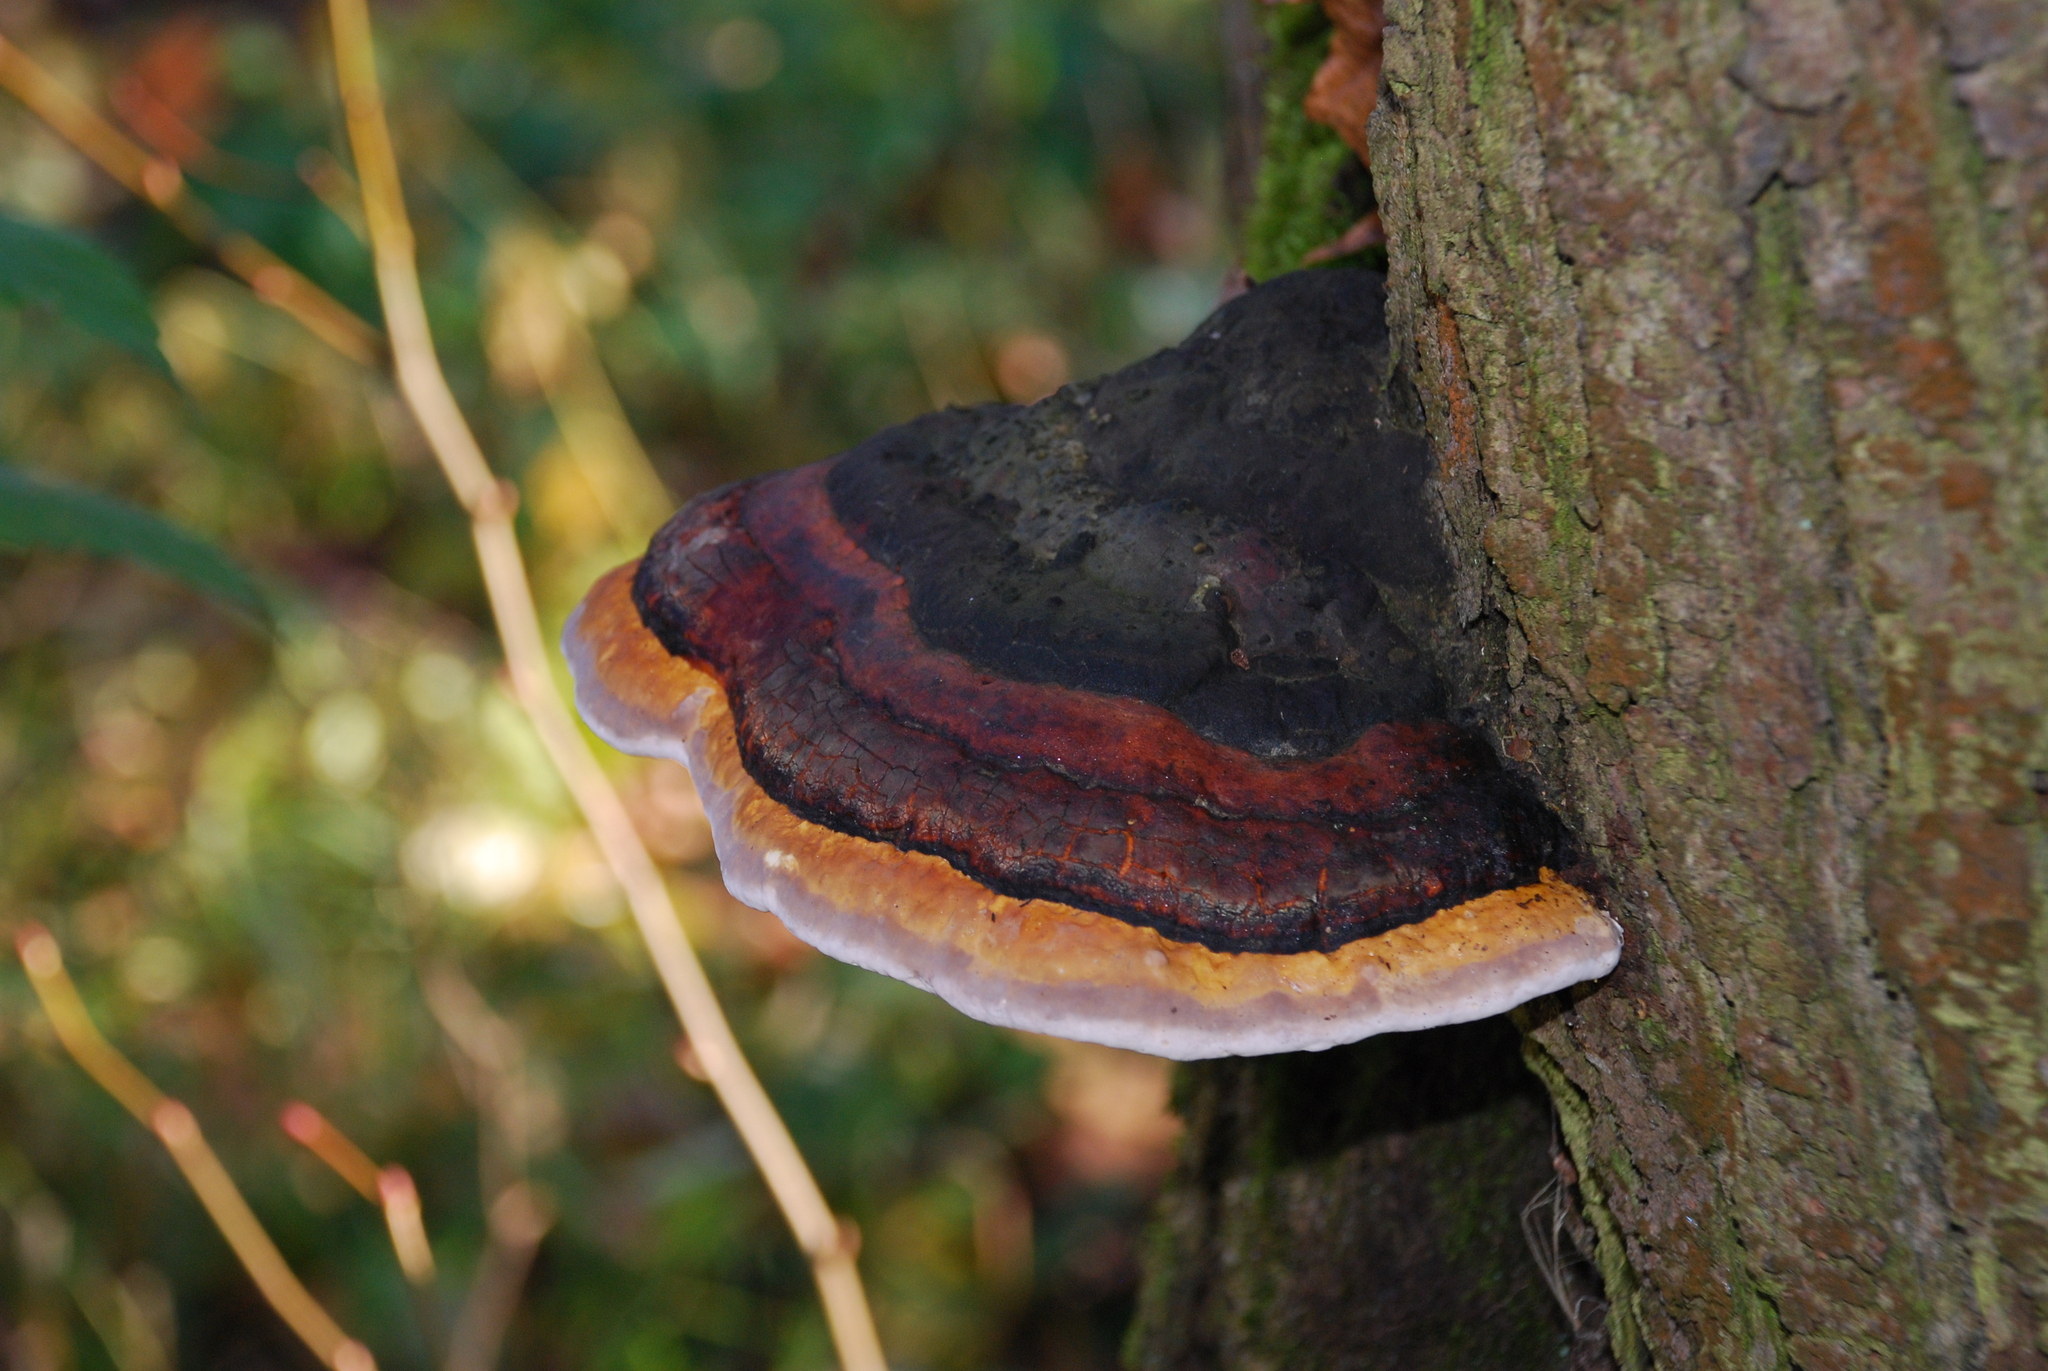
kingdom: Fungi
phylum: Basidiomycota
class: Agaricomycetes
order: Polyporales
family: Fomitopsidaceae
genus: Fomitopsis
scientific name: Fomitopsis pinicola
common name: Red-belted bracket
